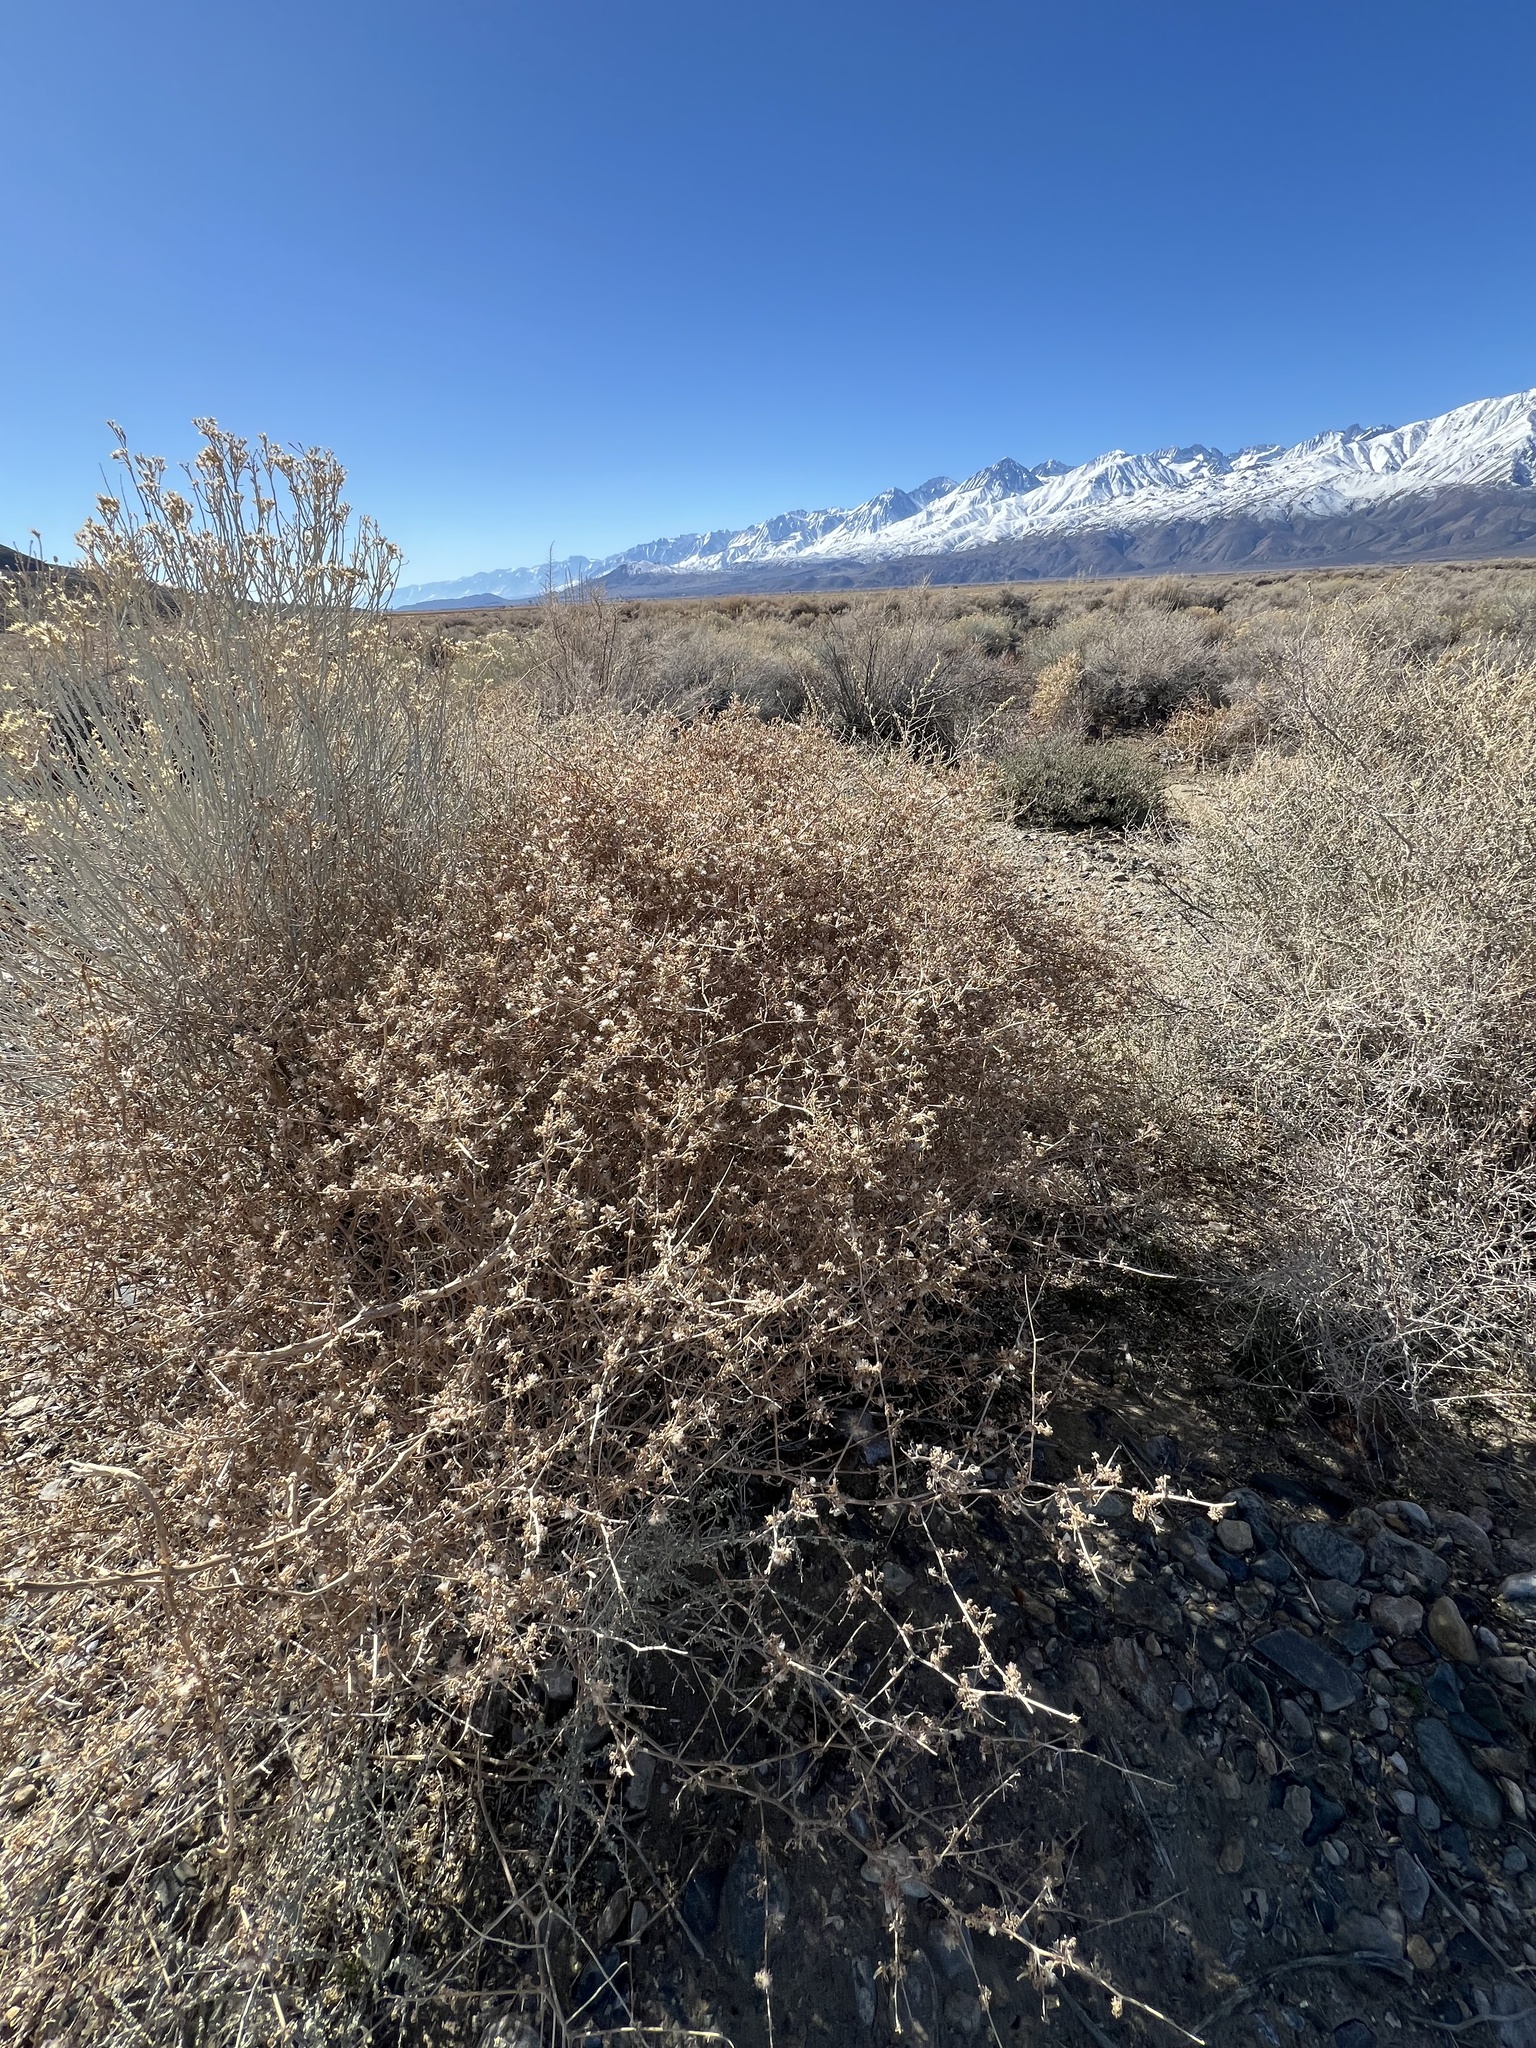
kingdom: Plantae
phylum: Tracheophyta
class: Magnoliopsida
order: Asterales
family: Asteraceae
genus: Stephanomeria
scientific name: Stephanomeria pauciflora
